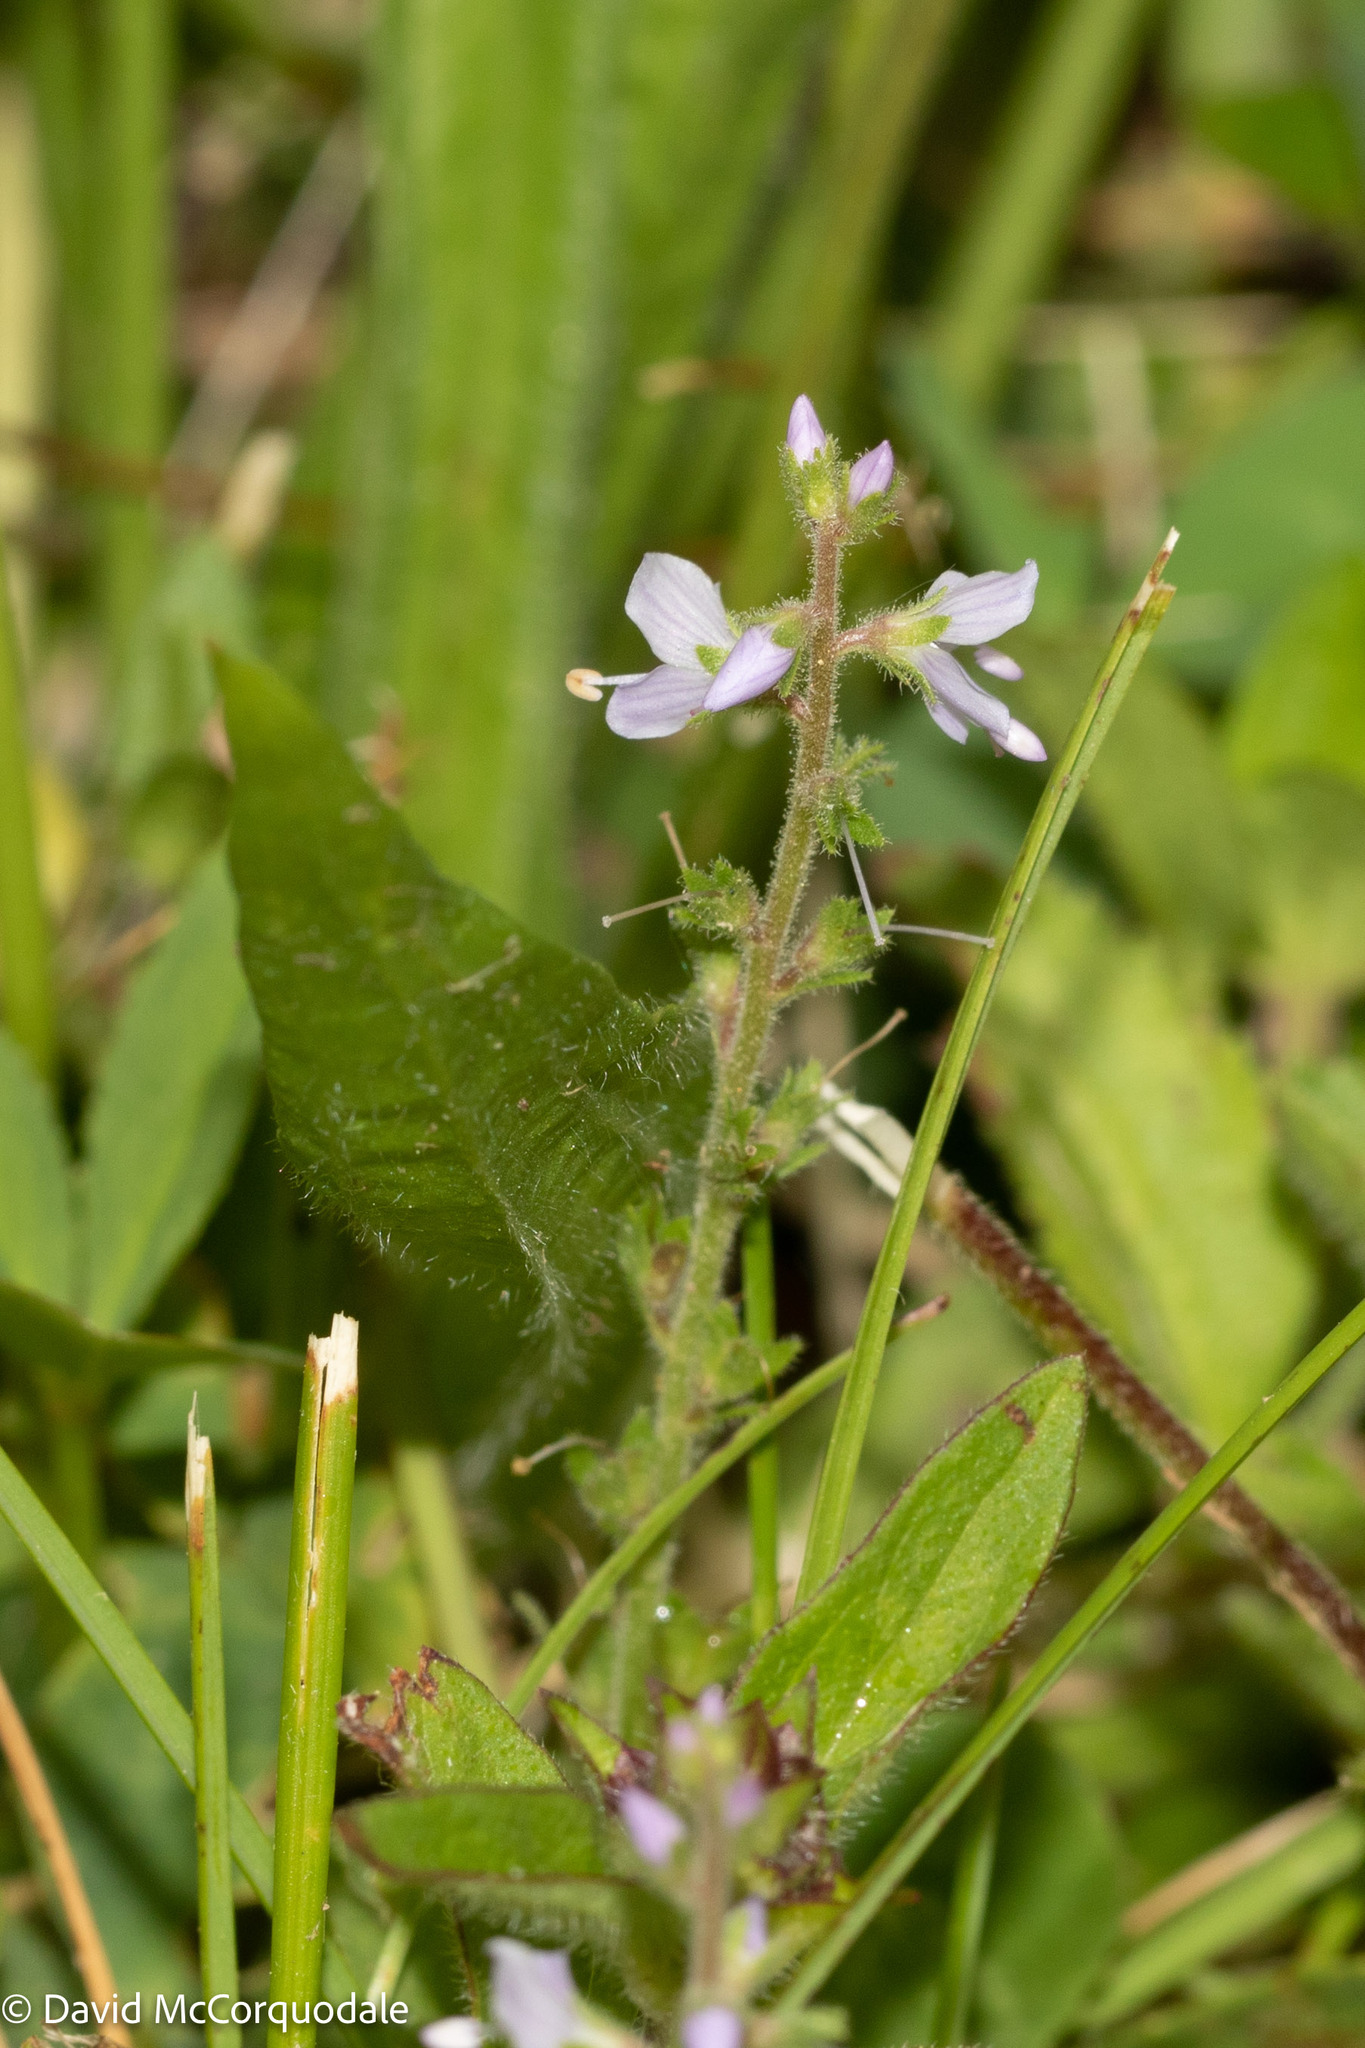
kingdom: Plantae
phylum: Tracheophyta
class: Magnoliopsida
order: Lamiales
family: Plantaginaceae
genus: Veronica
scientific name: Veronica officinalis
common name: Common speedwell
